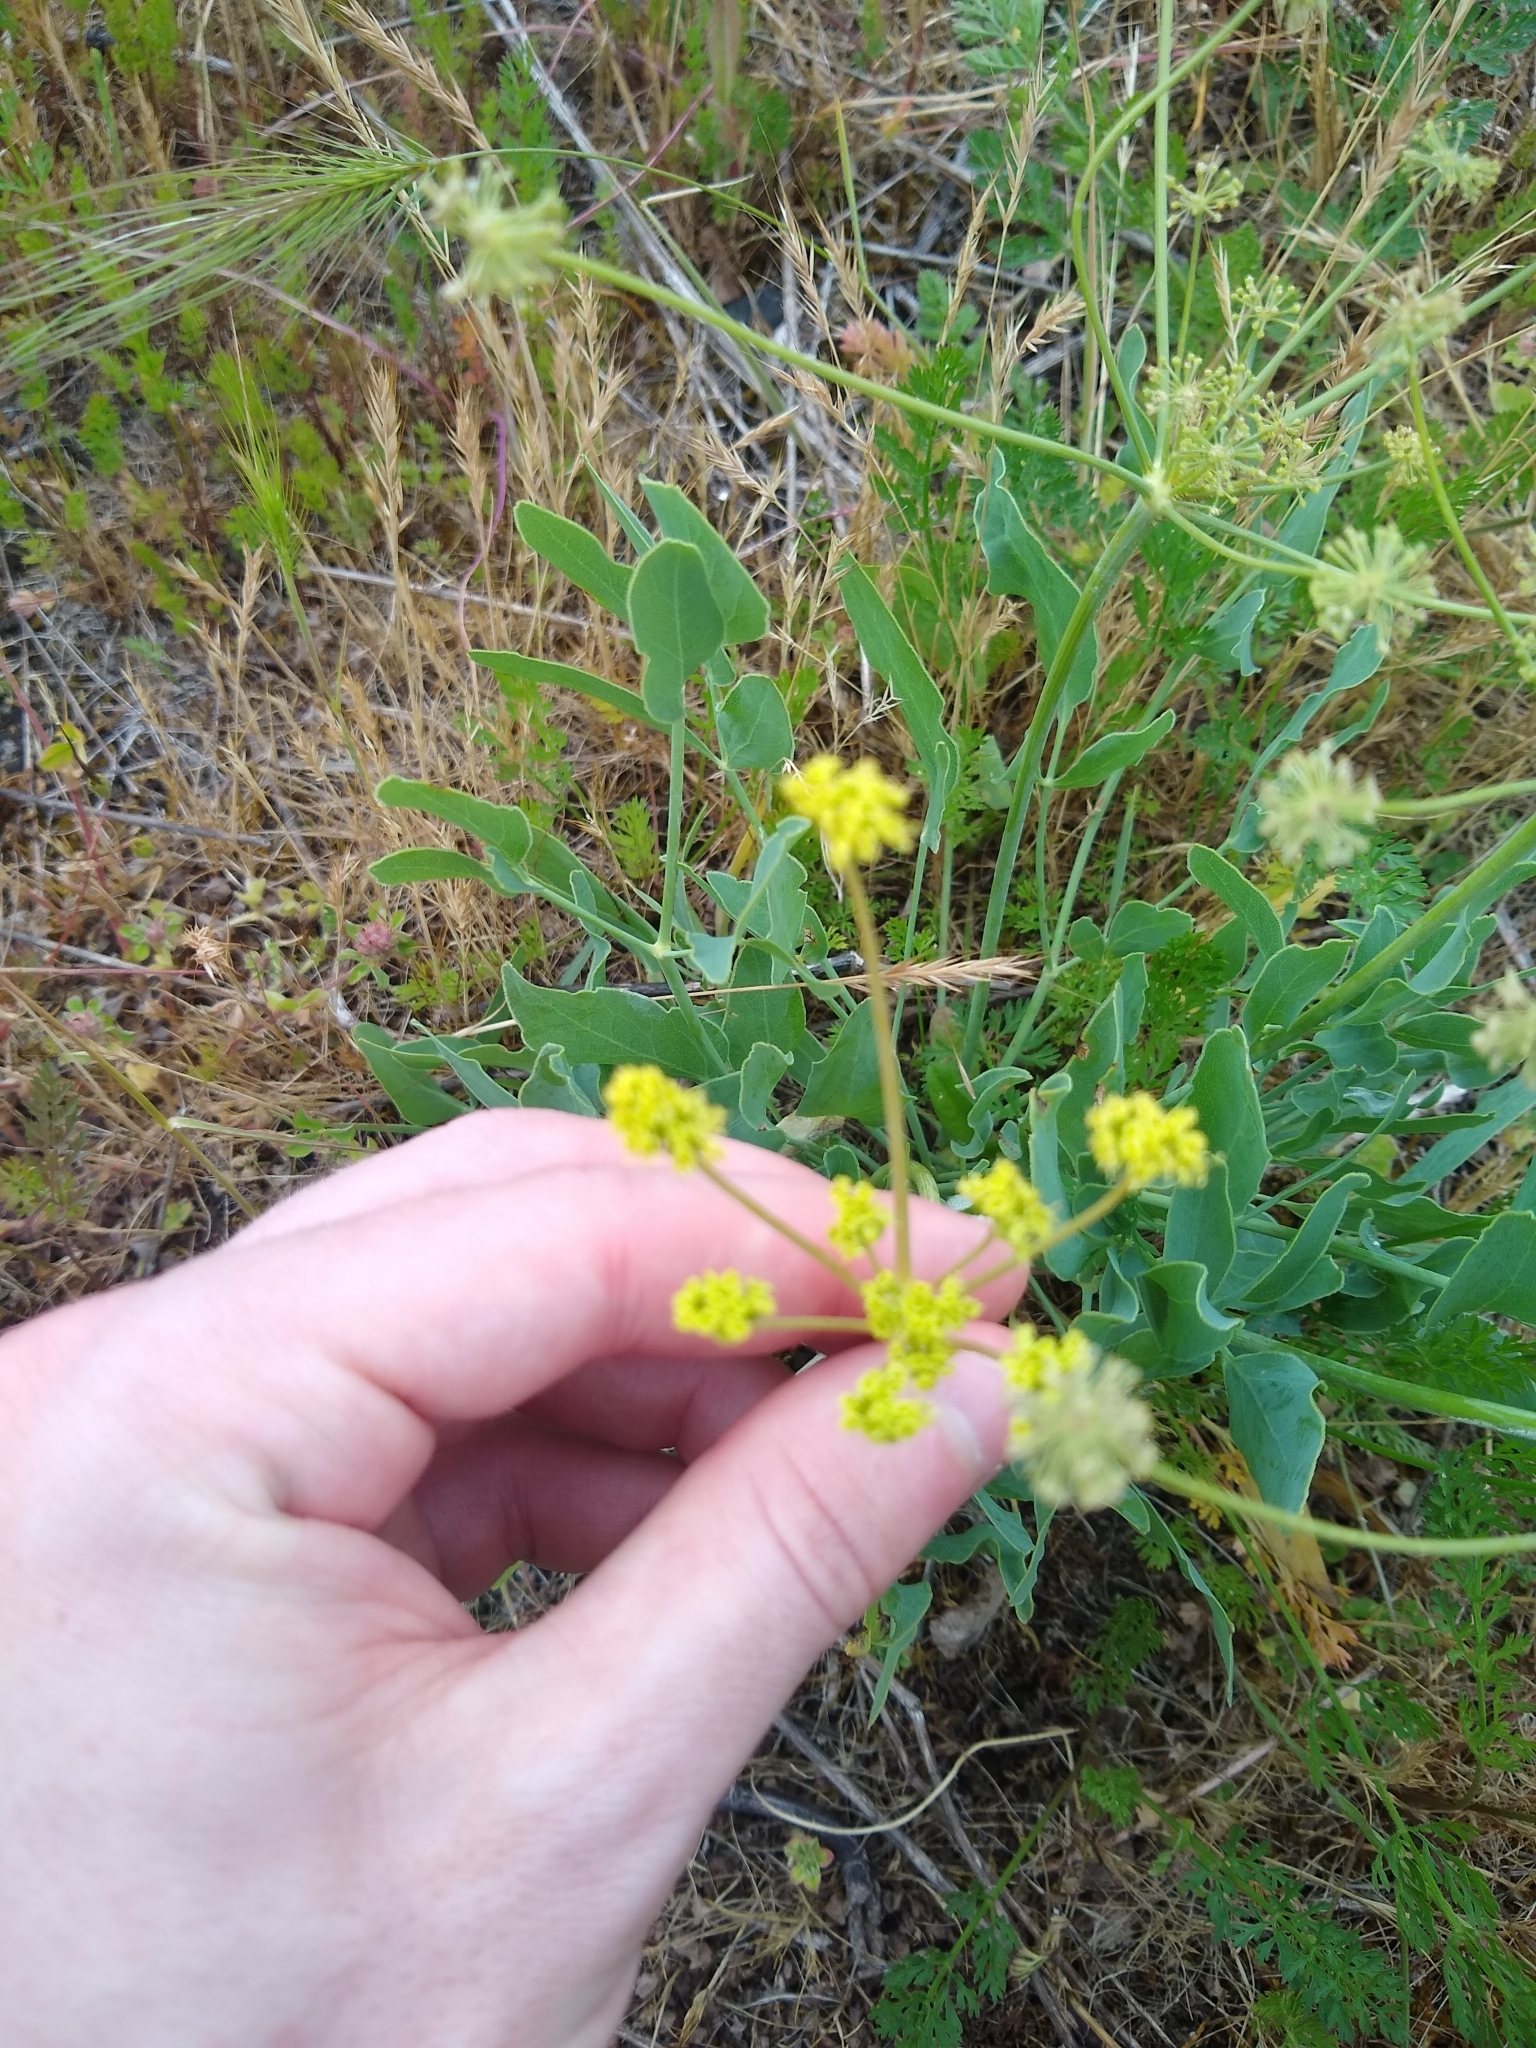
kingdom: Plantae
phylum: Tracheophyta
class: Magnoliopsida
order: Apiales
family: Apiaceae
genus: Lomatium
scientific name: Lomatium nudicaule
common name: Pestle lomatium
